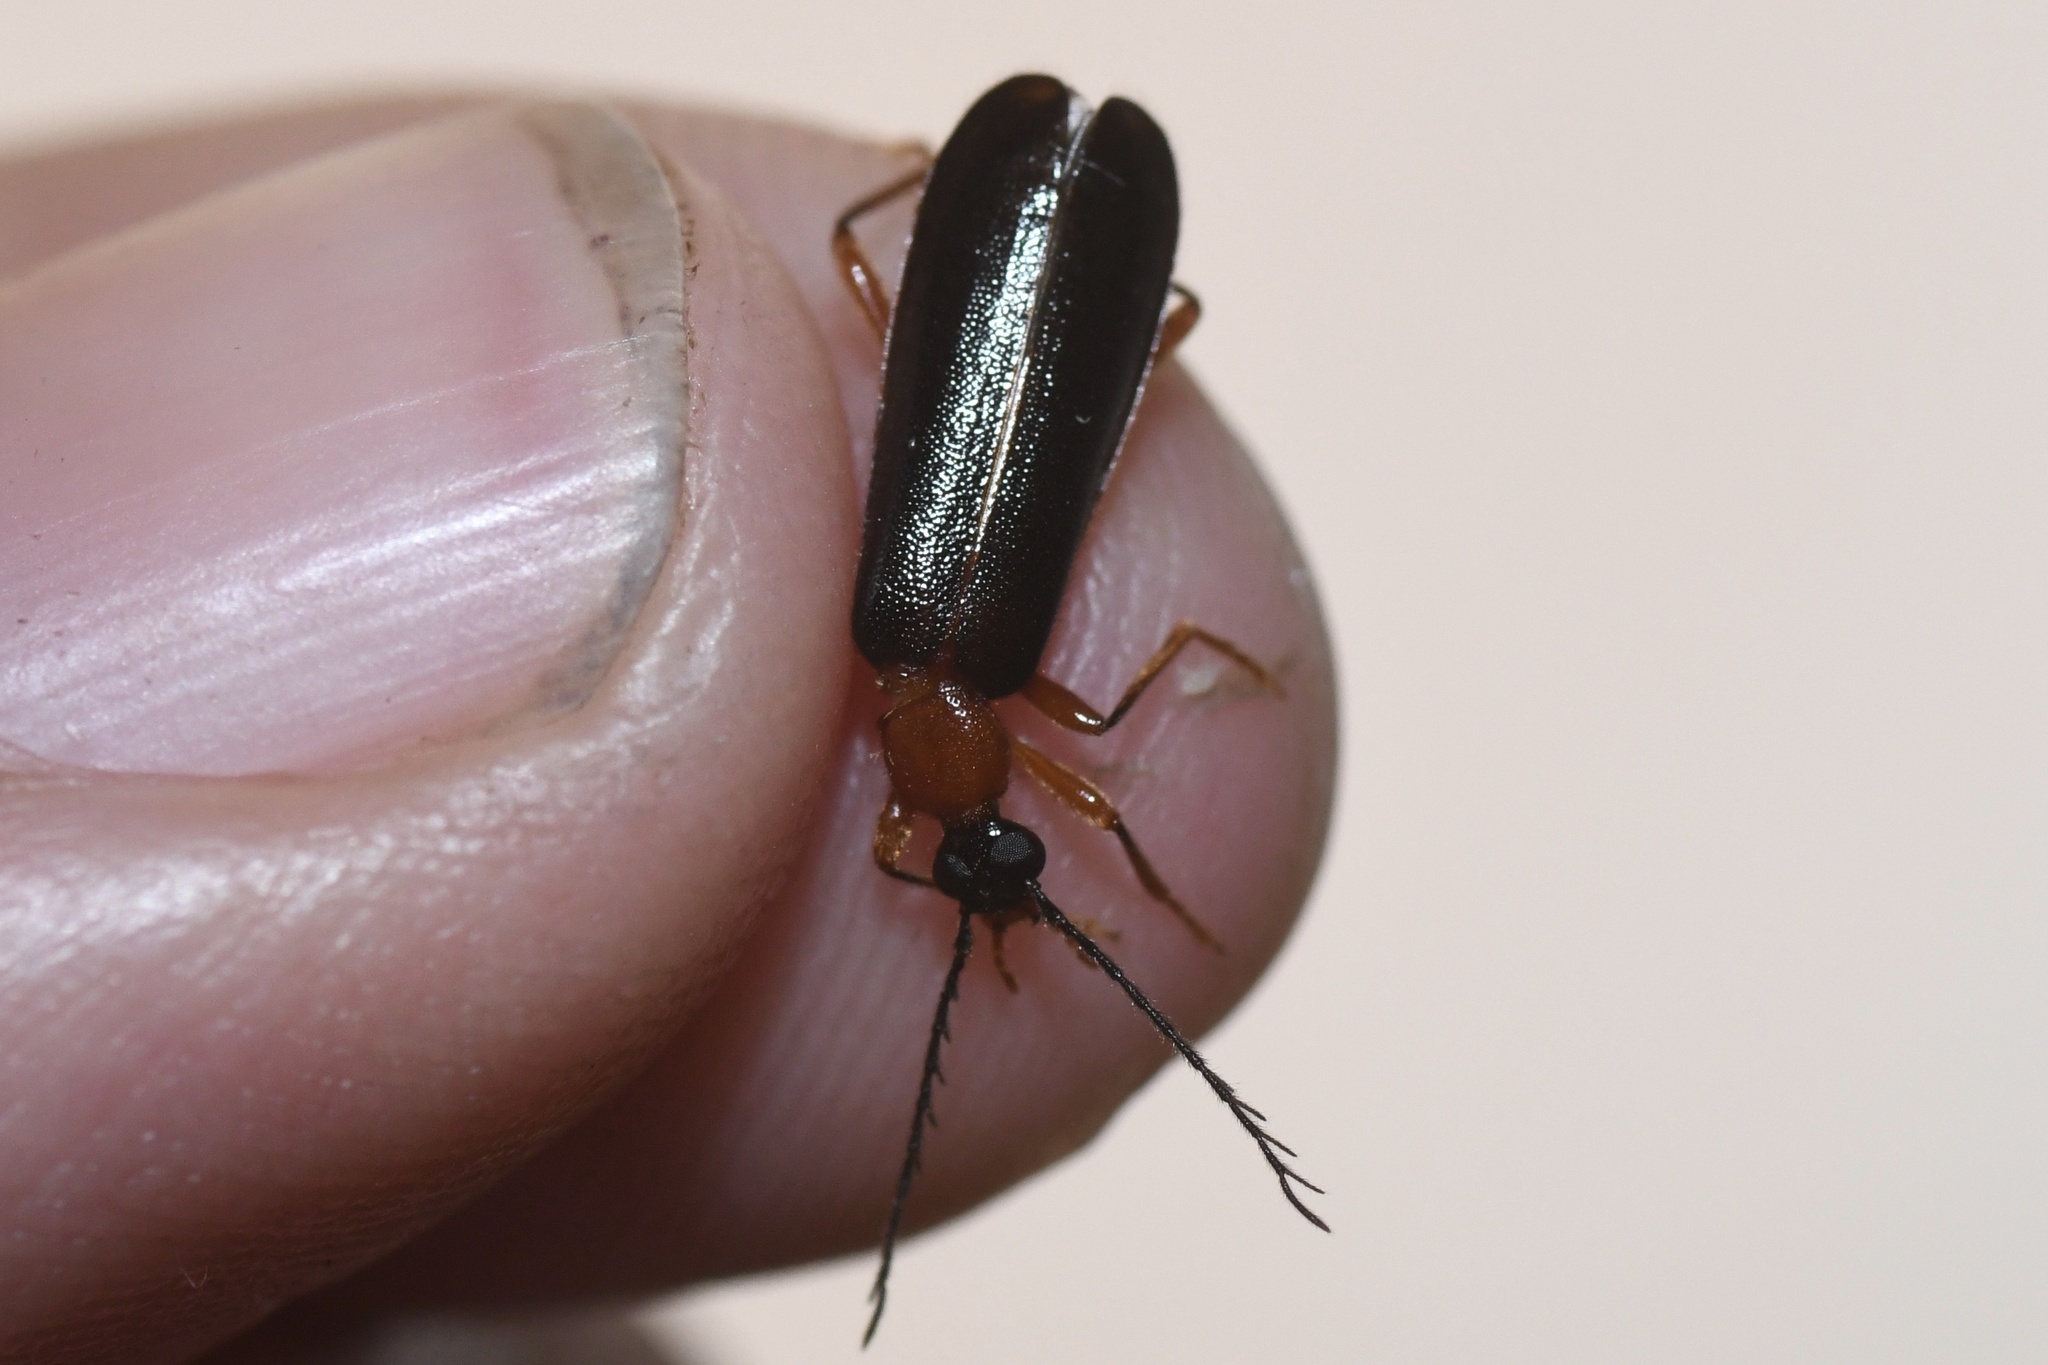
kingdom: Animalia
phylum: Arthropoda
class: Insecta
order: Coleoptera
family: Pyrochroidae
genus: Dendroides
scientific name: Dendroides canadensis
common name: Canada fire-colored beetle
